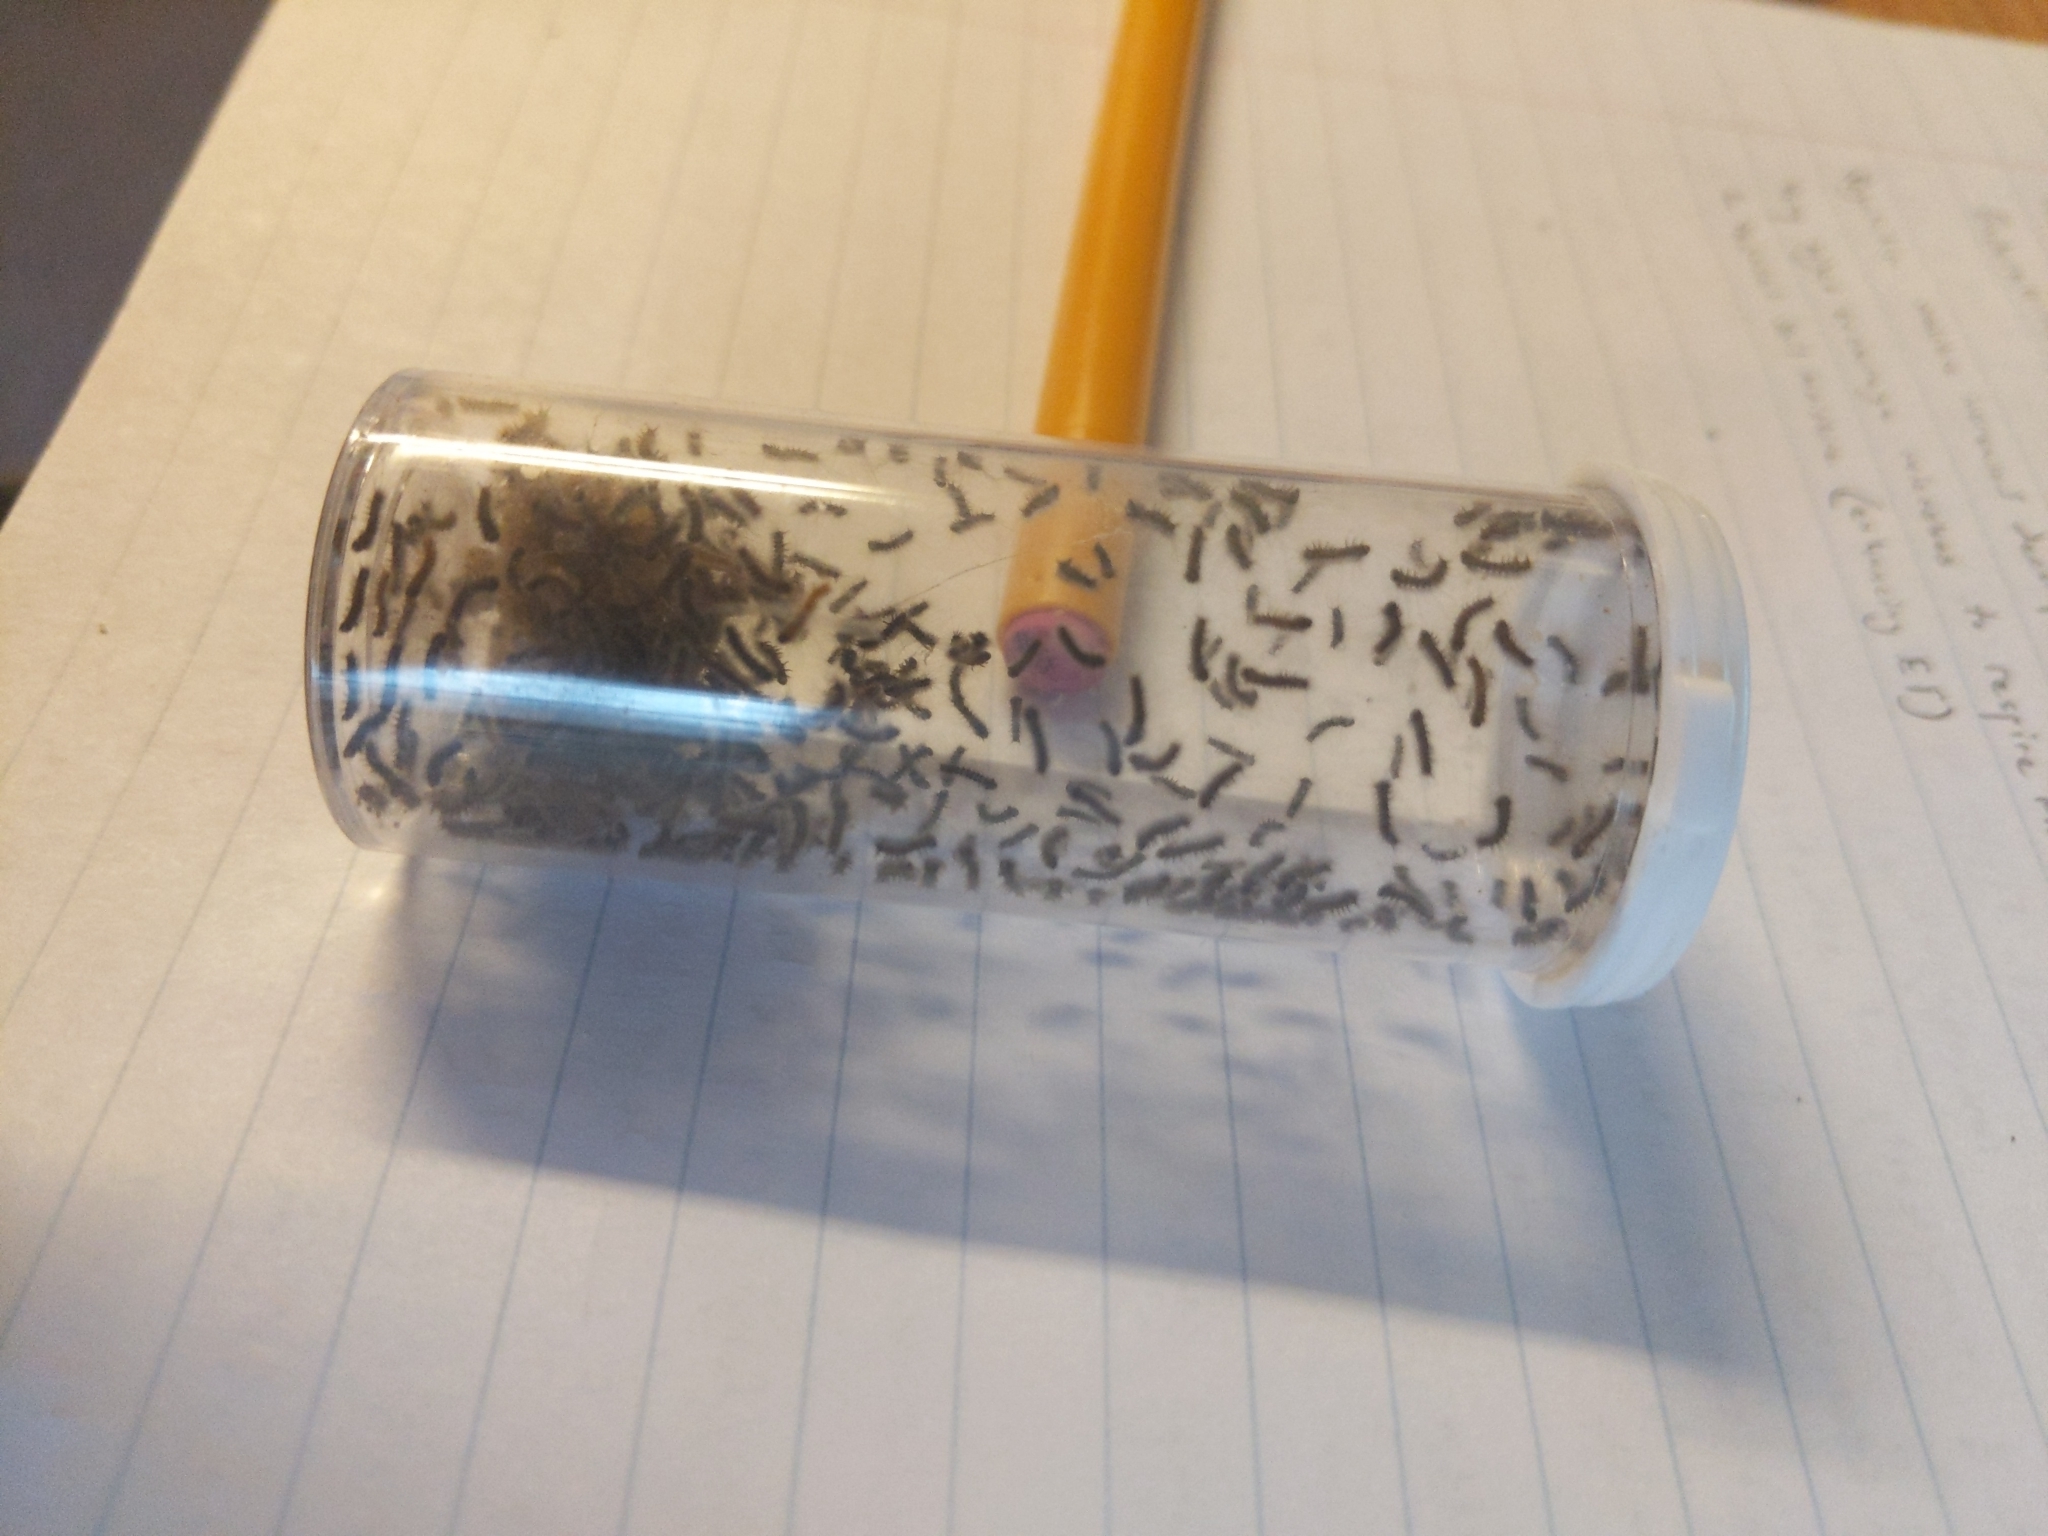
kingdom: Animalia
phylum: Arthropoda
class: Insecta
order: Lepidoptera
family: Erebidae
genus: Lymantria
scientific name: Lymantria dispar
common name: Gypsy moth
